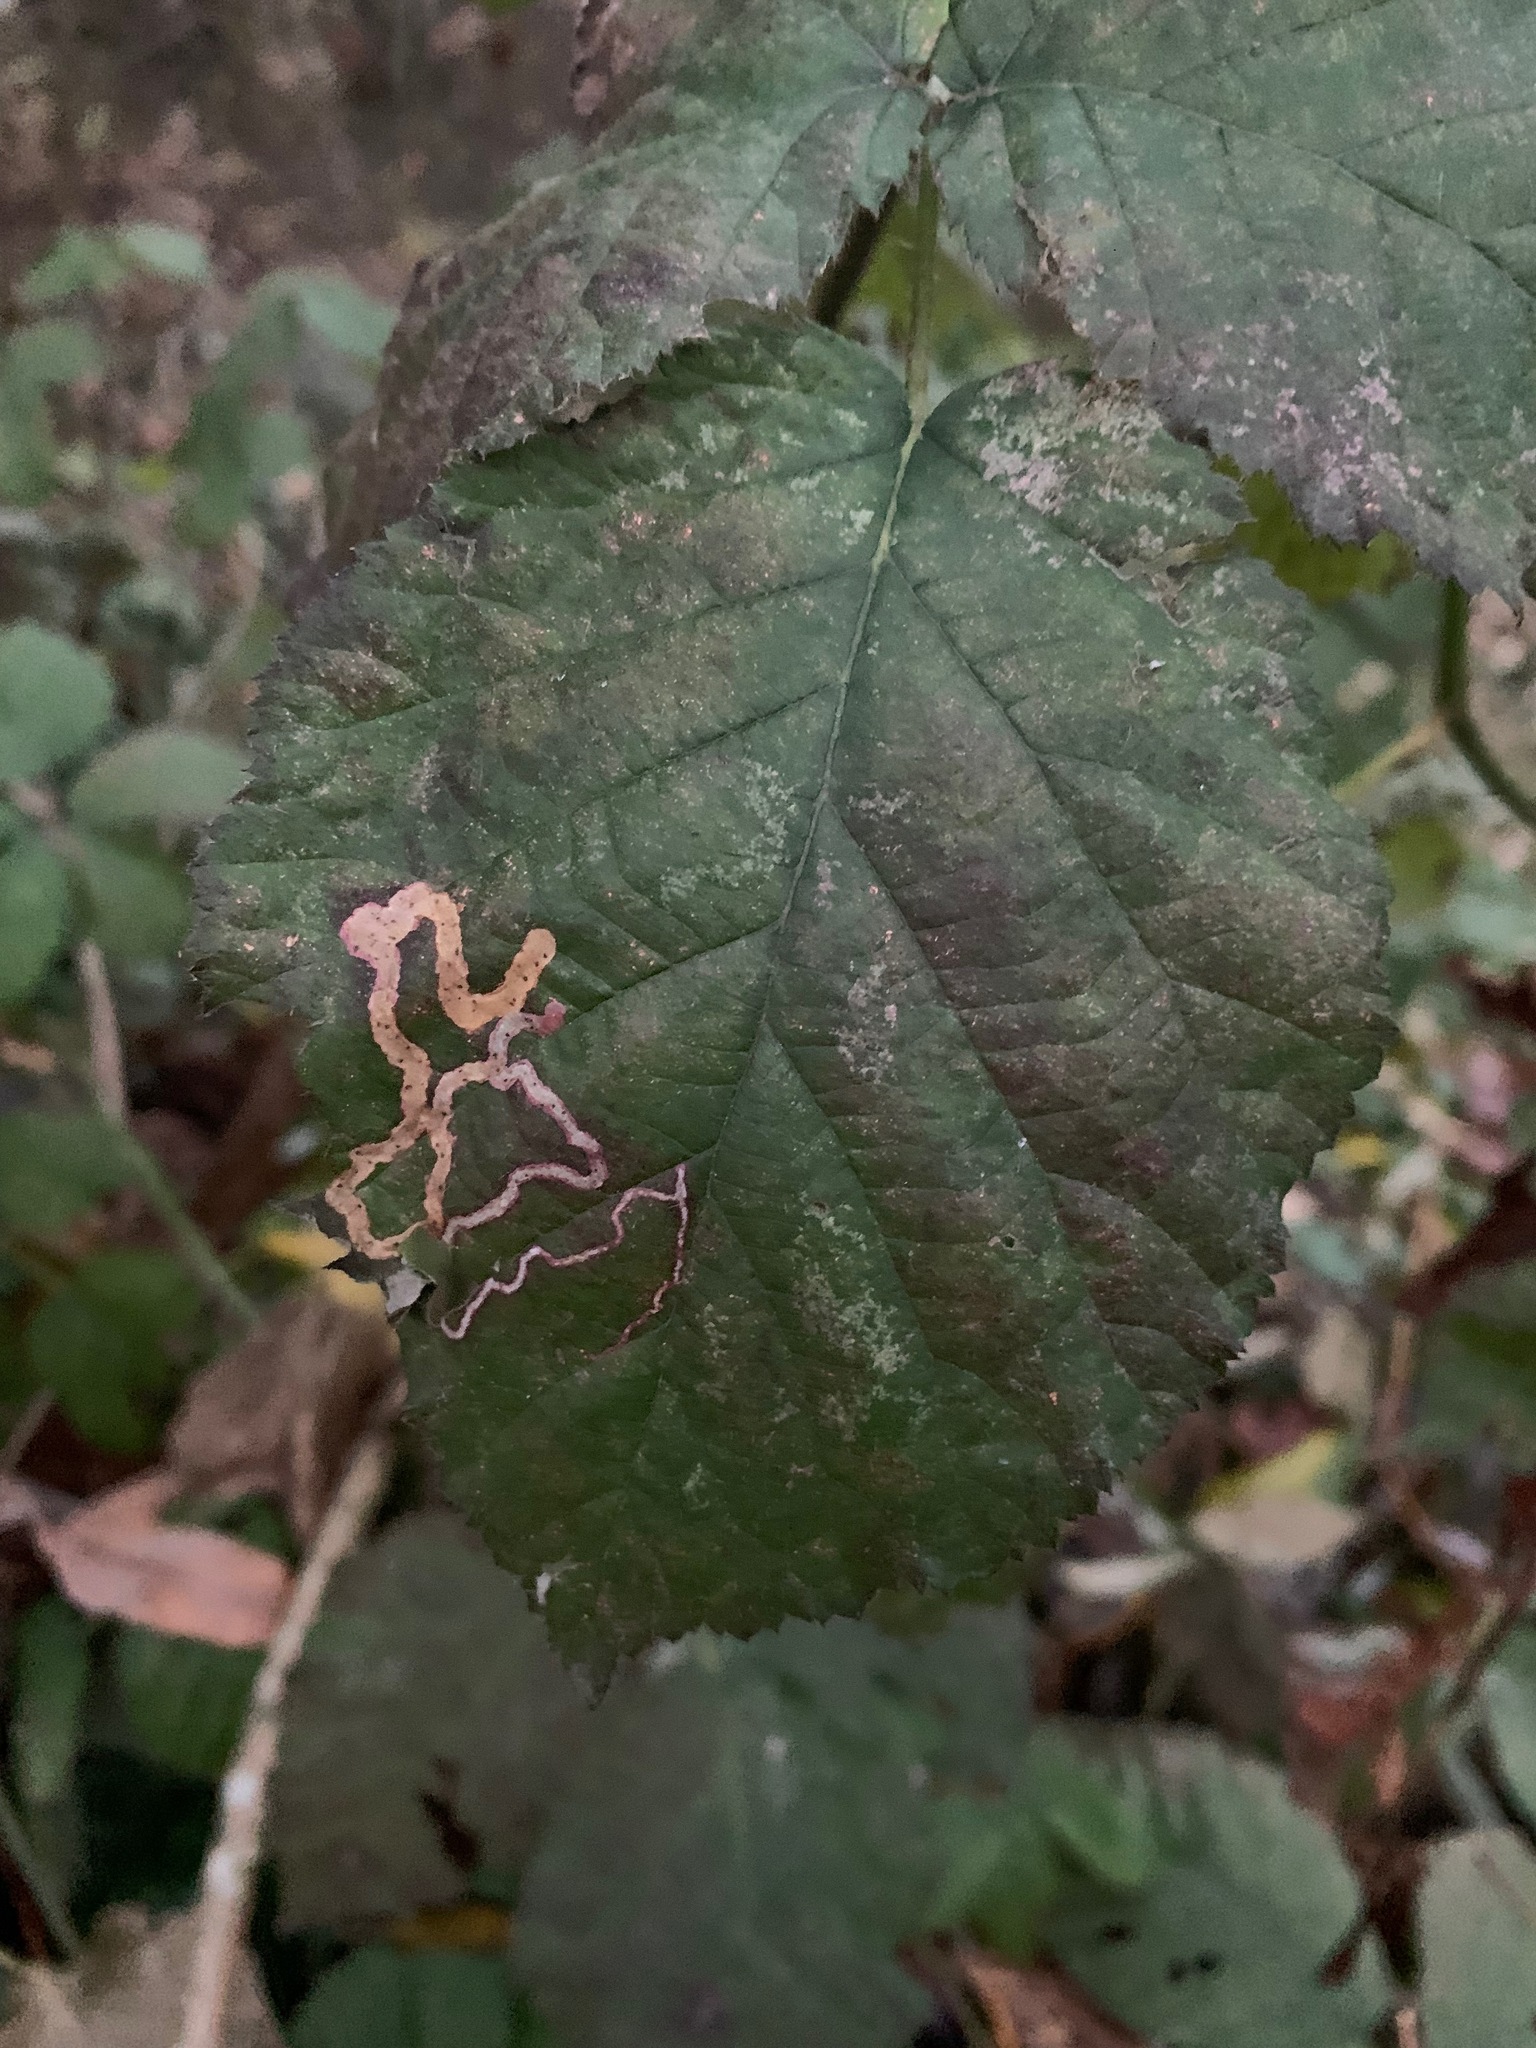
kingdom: Plantae
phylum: Tracheophyta
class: Magnoliopsida
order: Rosales
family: Rosaceae
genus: Rubus
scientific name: Rubus
